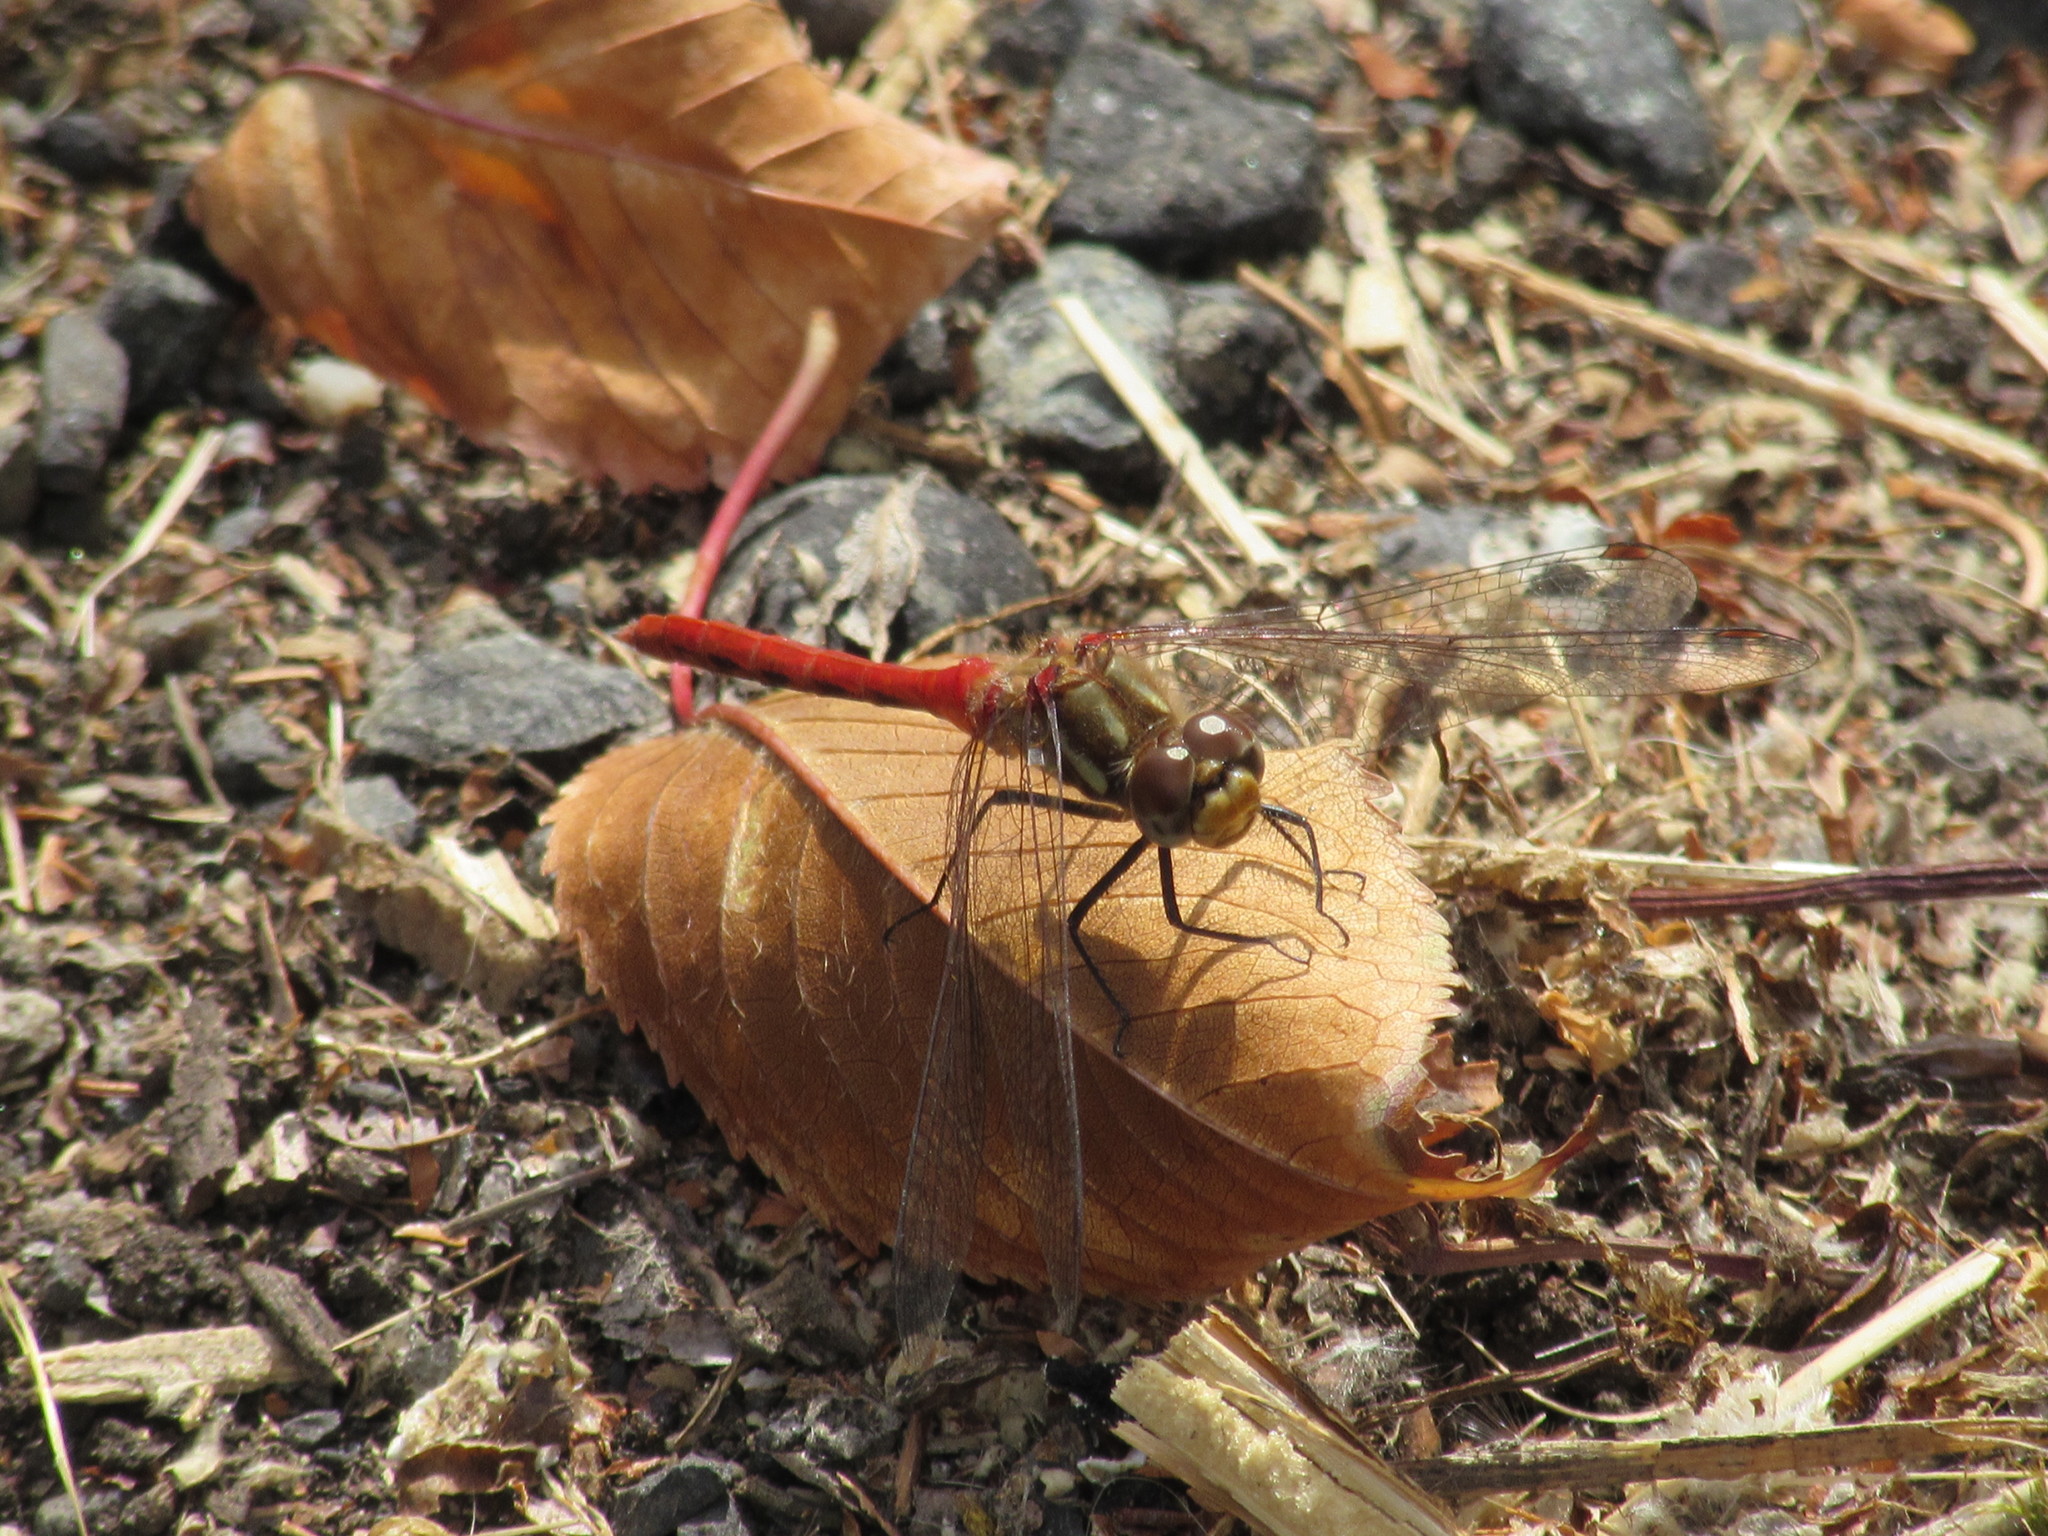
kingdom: Animalia
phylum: Arthropoda
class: Insecta
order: Odonata
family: Libellulidae
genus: Sympetrum
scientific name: Sympetrum pallipes
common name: Striped meadowhawk
